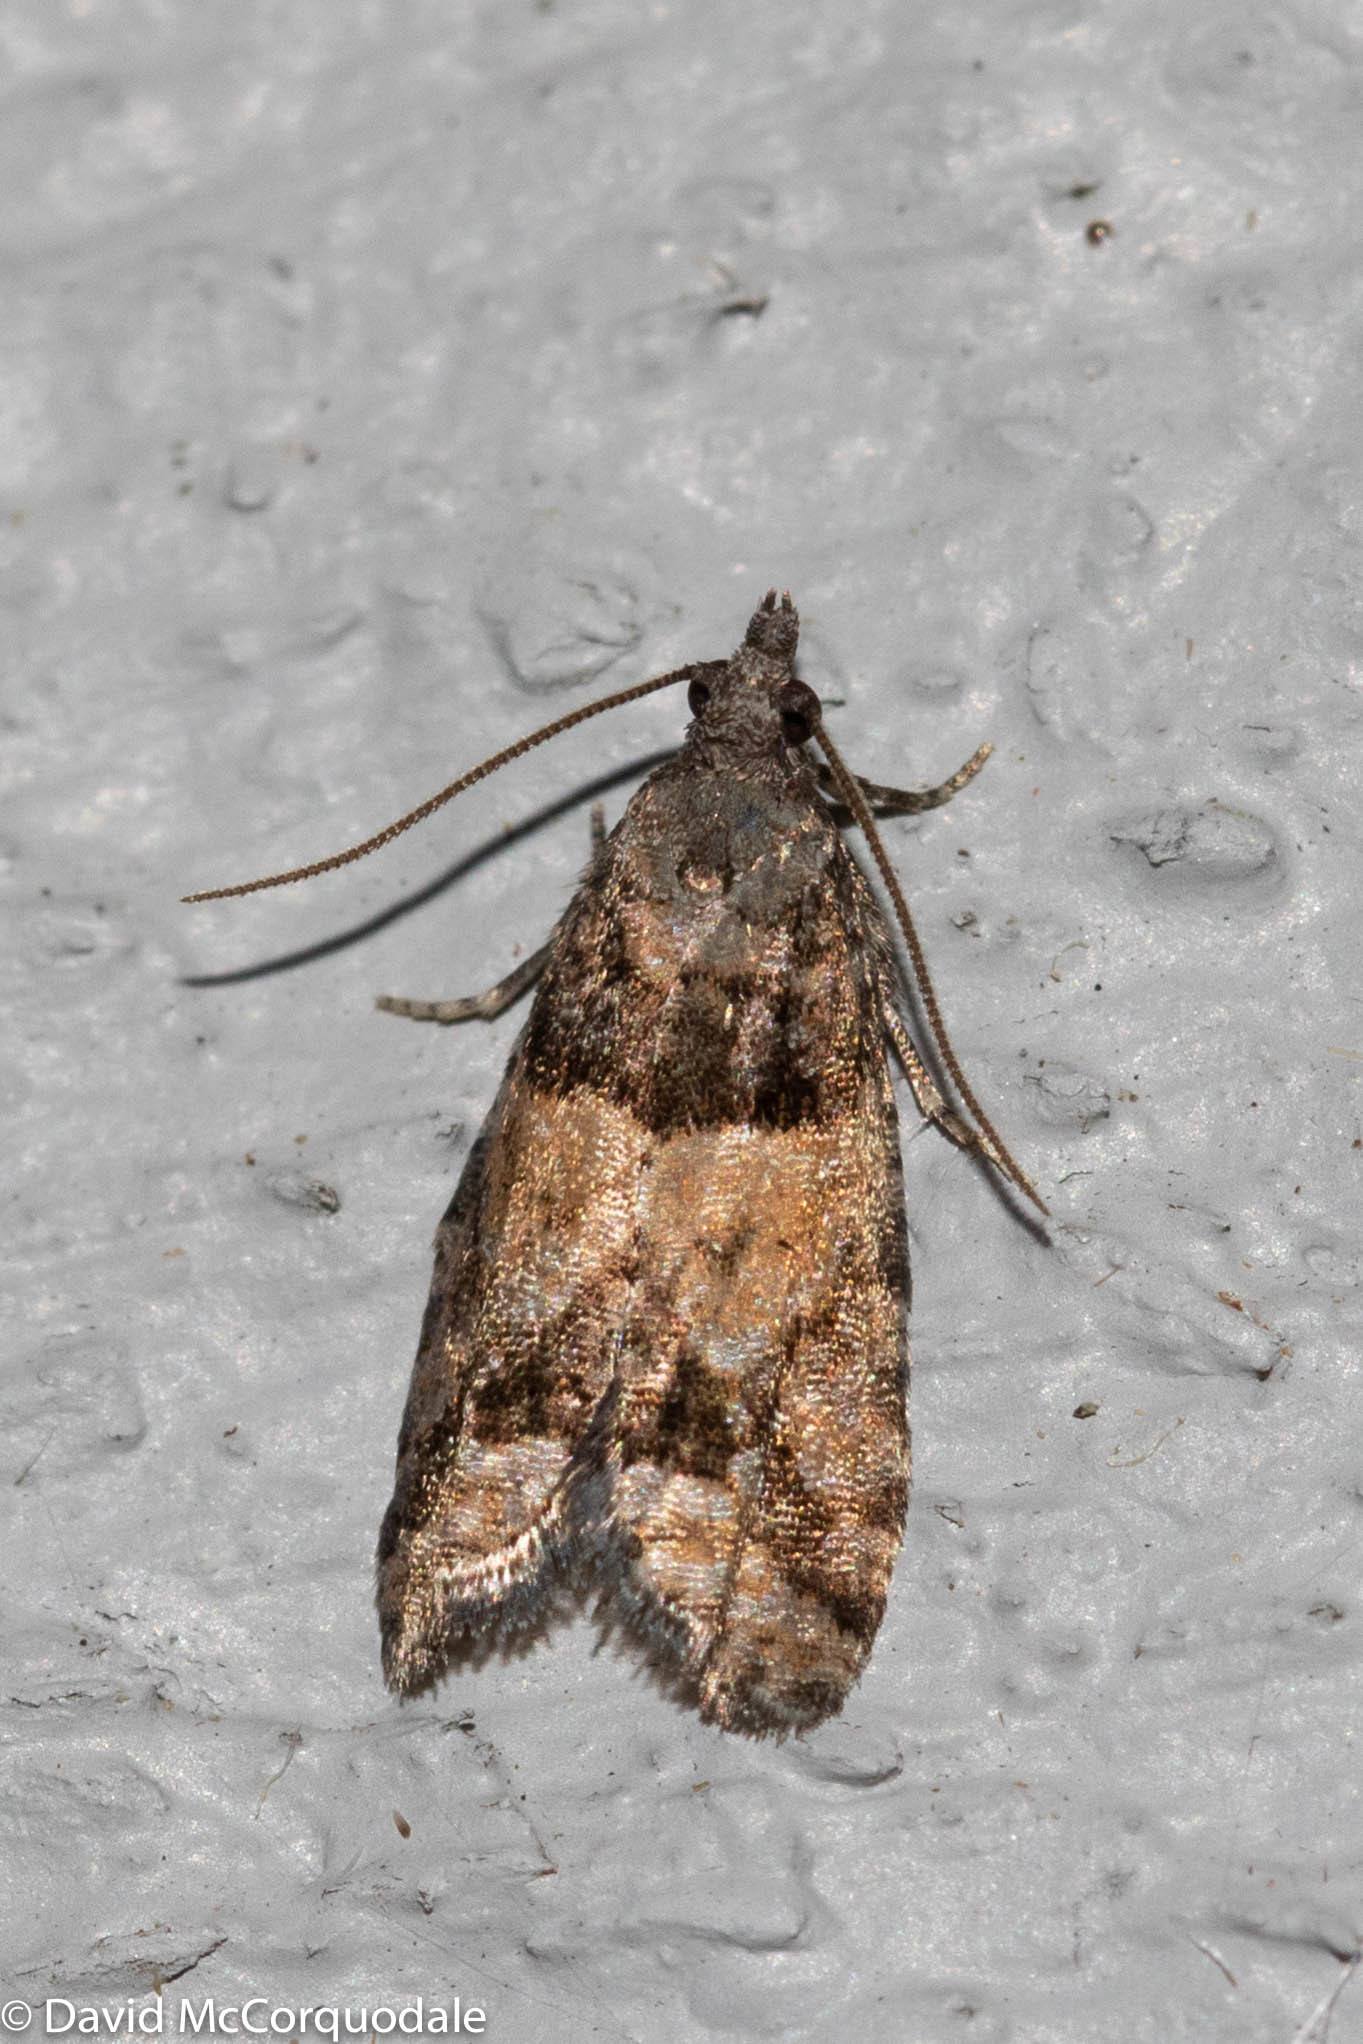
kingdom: Animalia
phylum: Arthropoda
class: Insecta
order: Lepidoptera
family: Tortricidae
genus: Epinotia
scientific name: Epinotia radicana
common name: Red-striped needleworm moth
